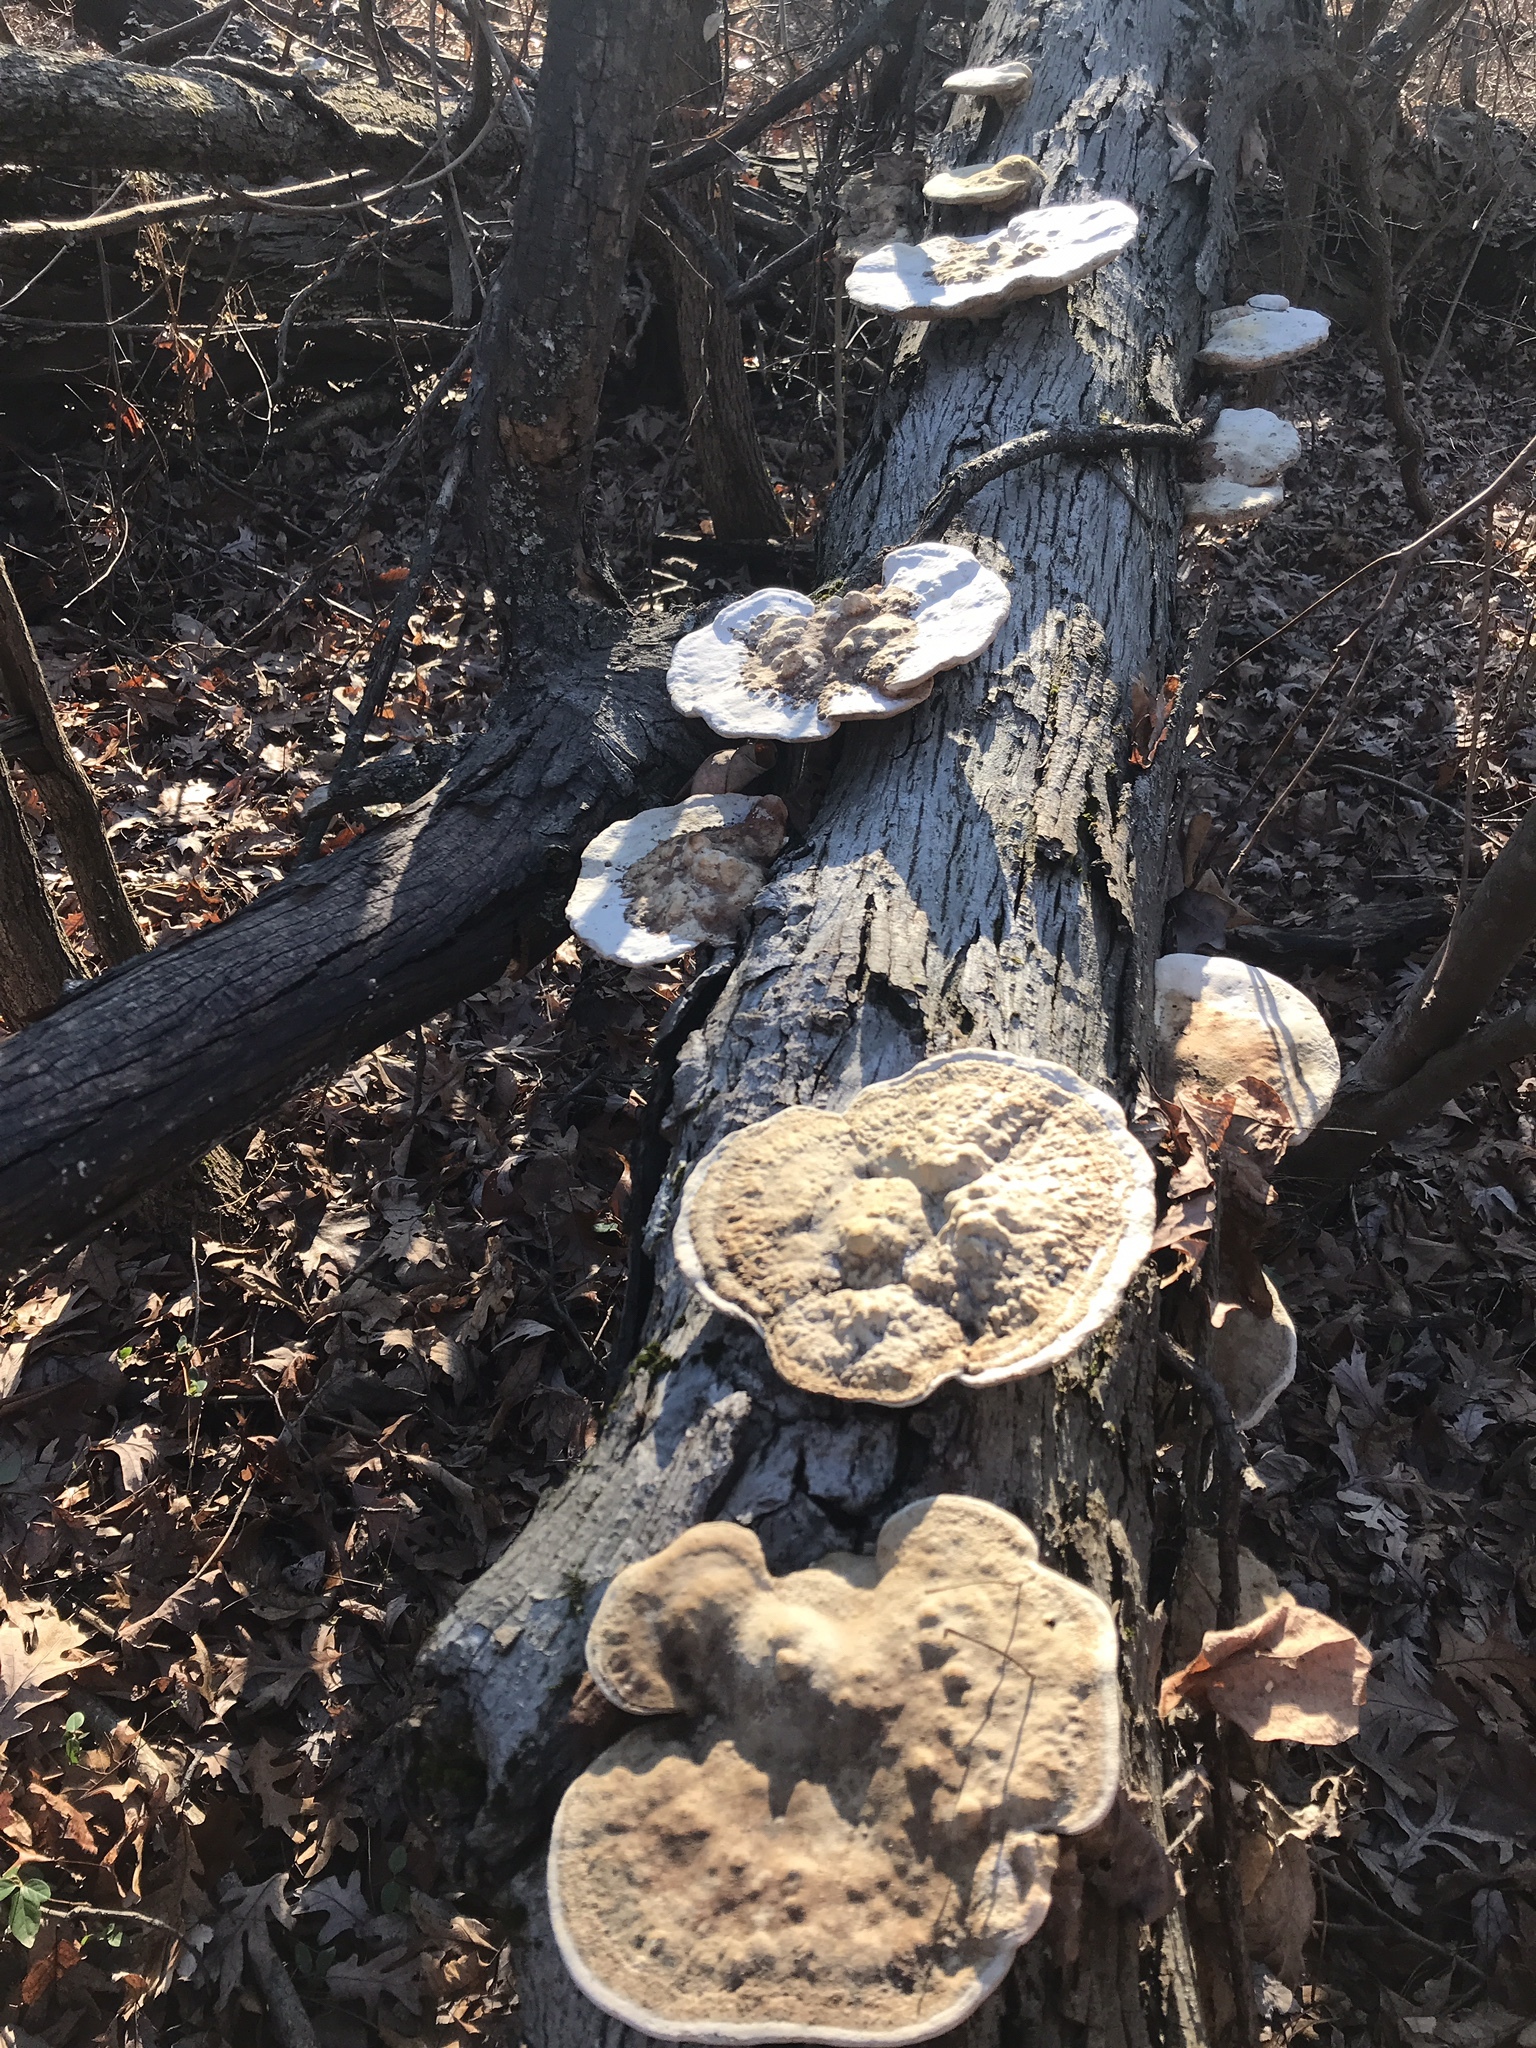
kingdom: Fungi
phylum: Basidiomycota
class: Agaricomycetes
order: Polyporales
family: Polyporaceae
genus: Trametes
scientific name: Trametes
